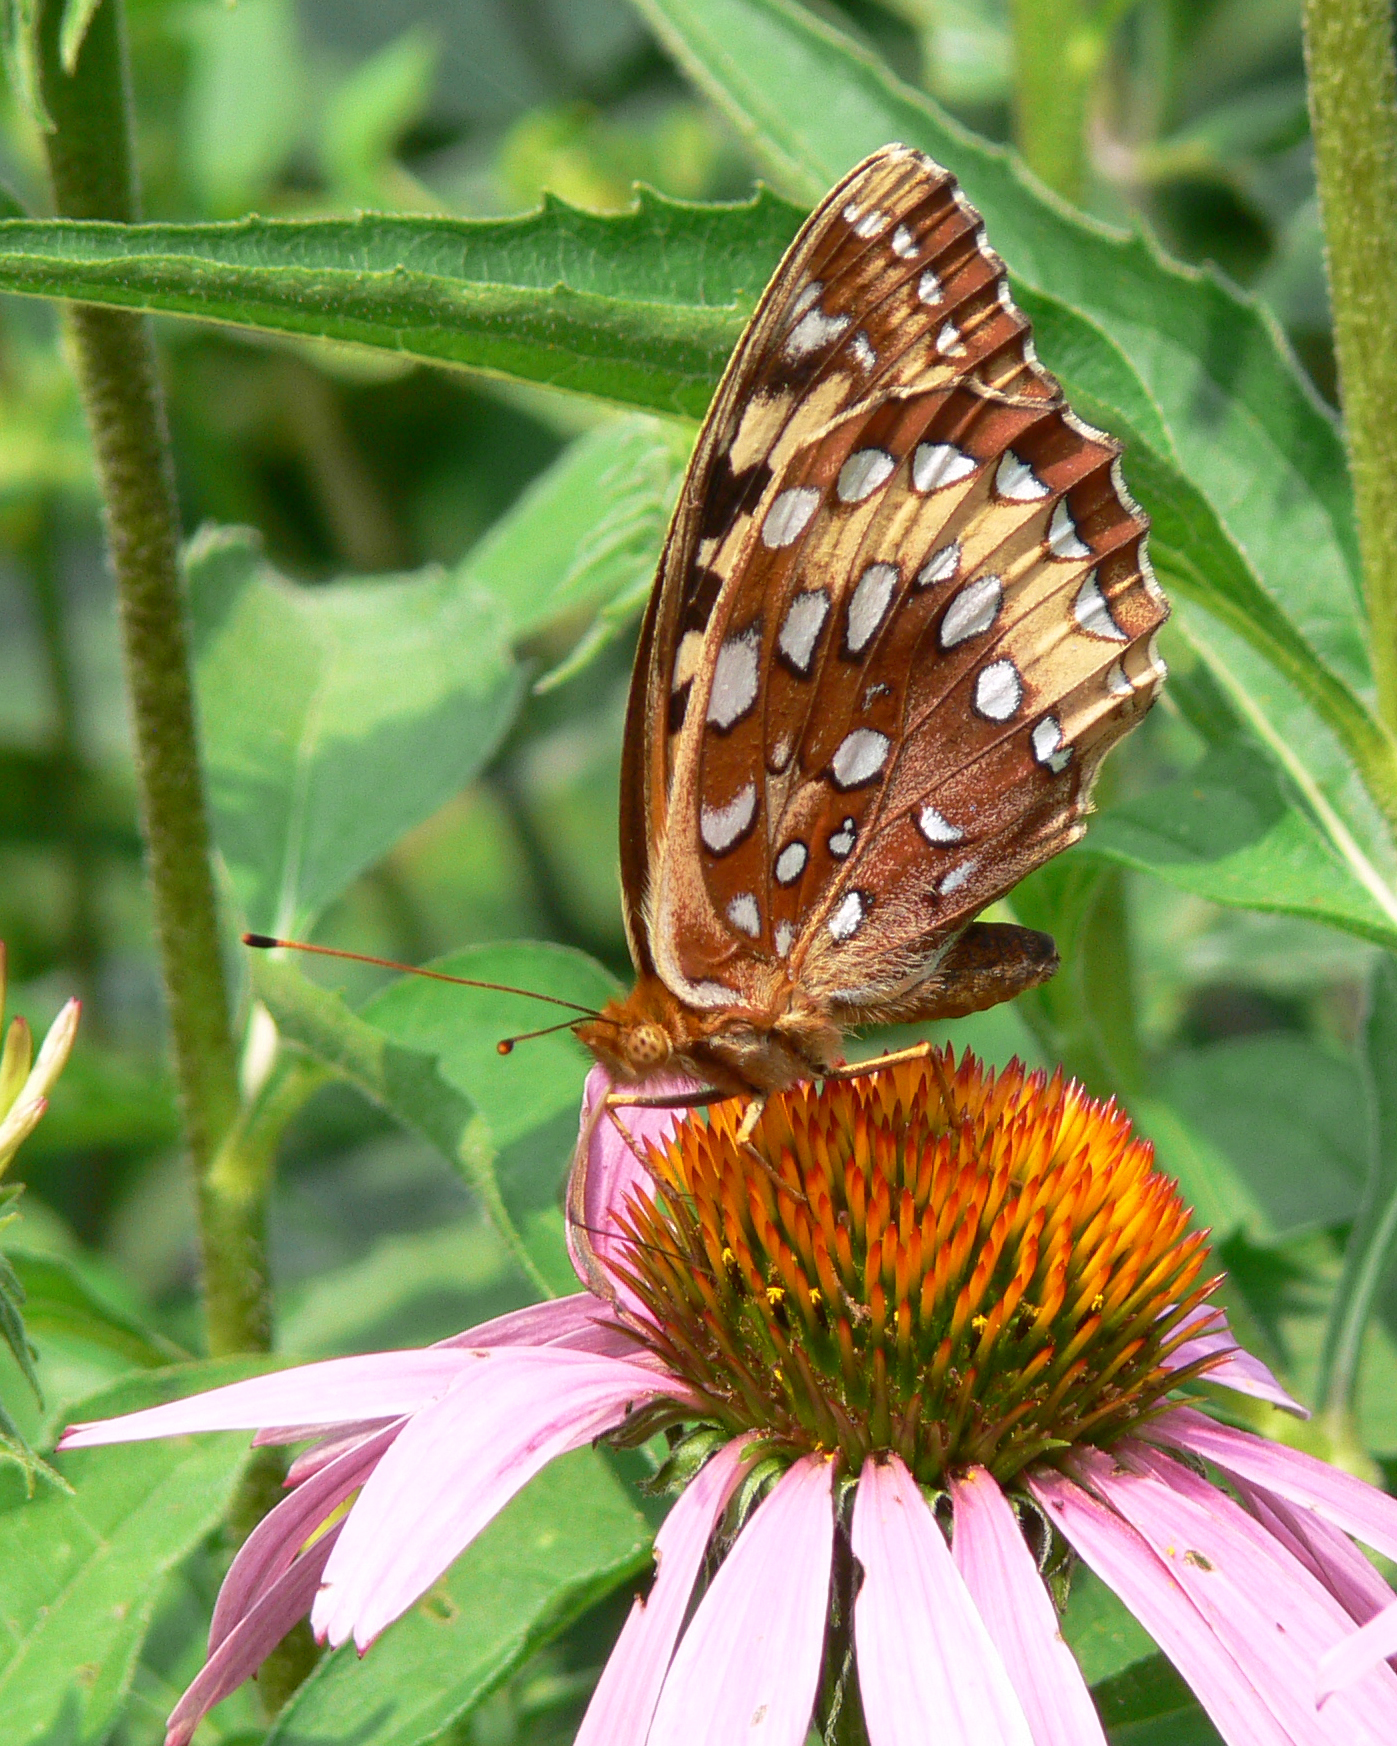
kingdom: Animalia
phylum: Arthropoda
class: Insecta
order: Lepidoptera
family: Nymphalidae
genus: Speyeria
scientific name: Speyeria cybele
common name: Great spangled fritillary
